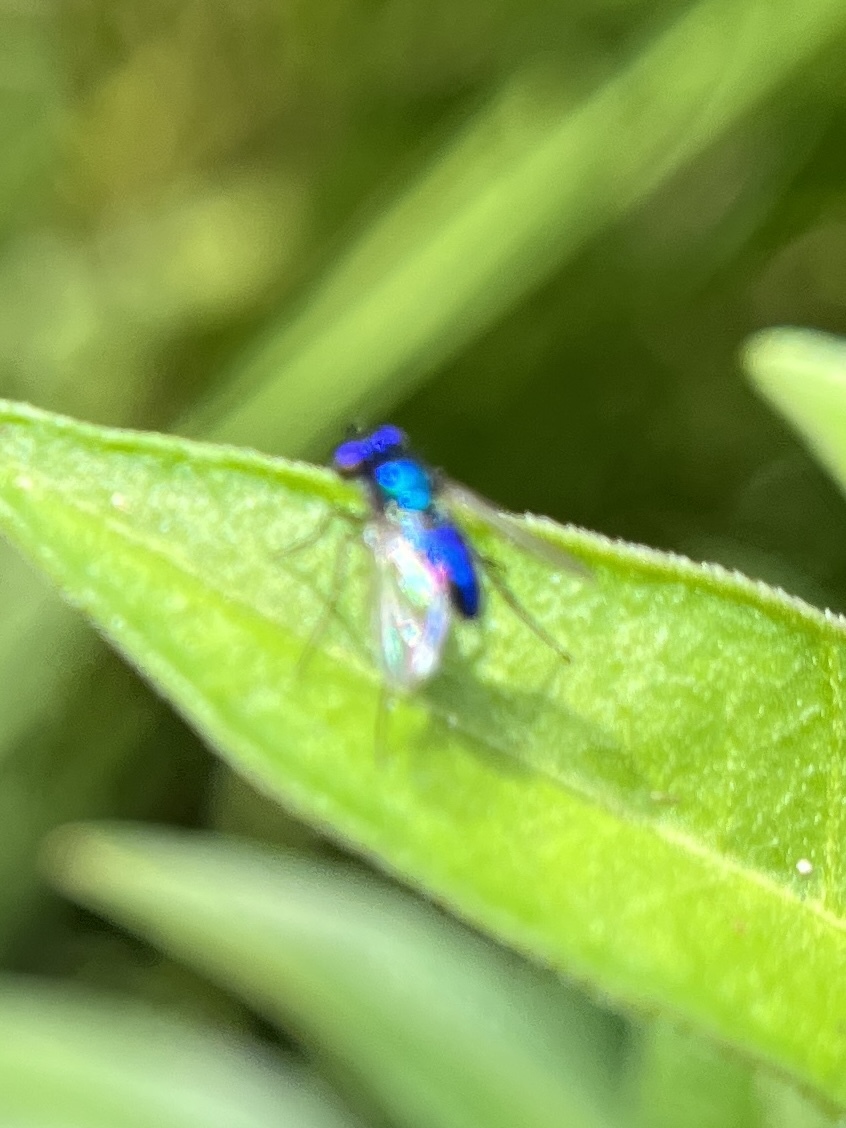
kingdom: Animalia
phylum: Arthropoda
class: Insecta
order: Diptera
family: Dolichopodidae
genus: Condylostylus
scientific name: Condylostylus mundus
